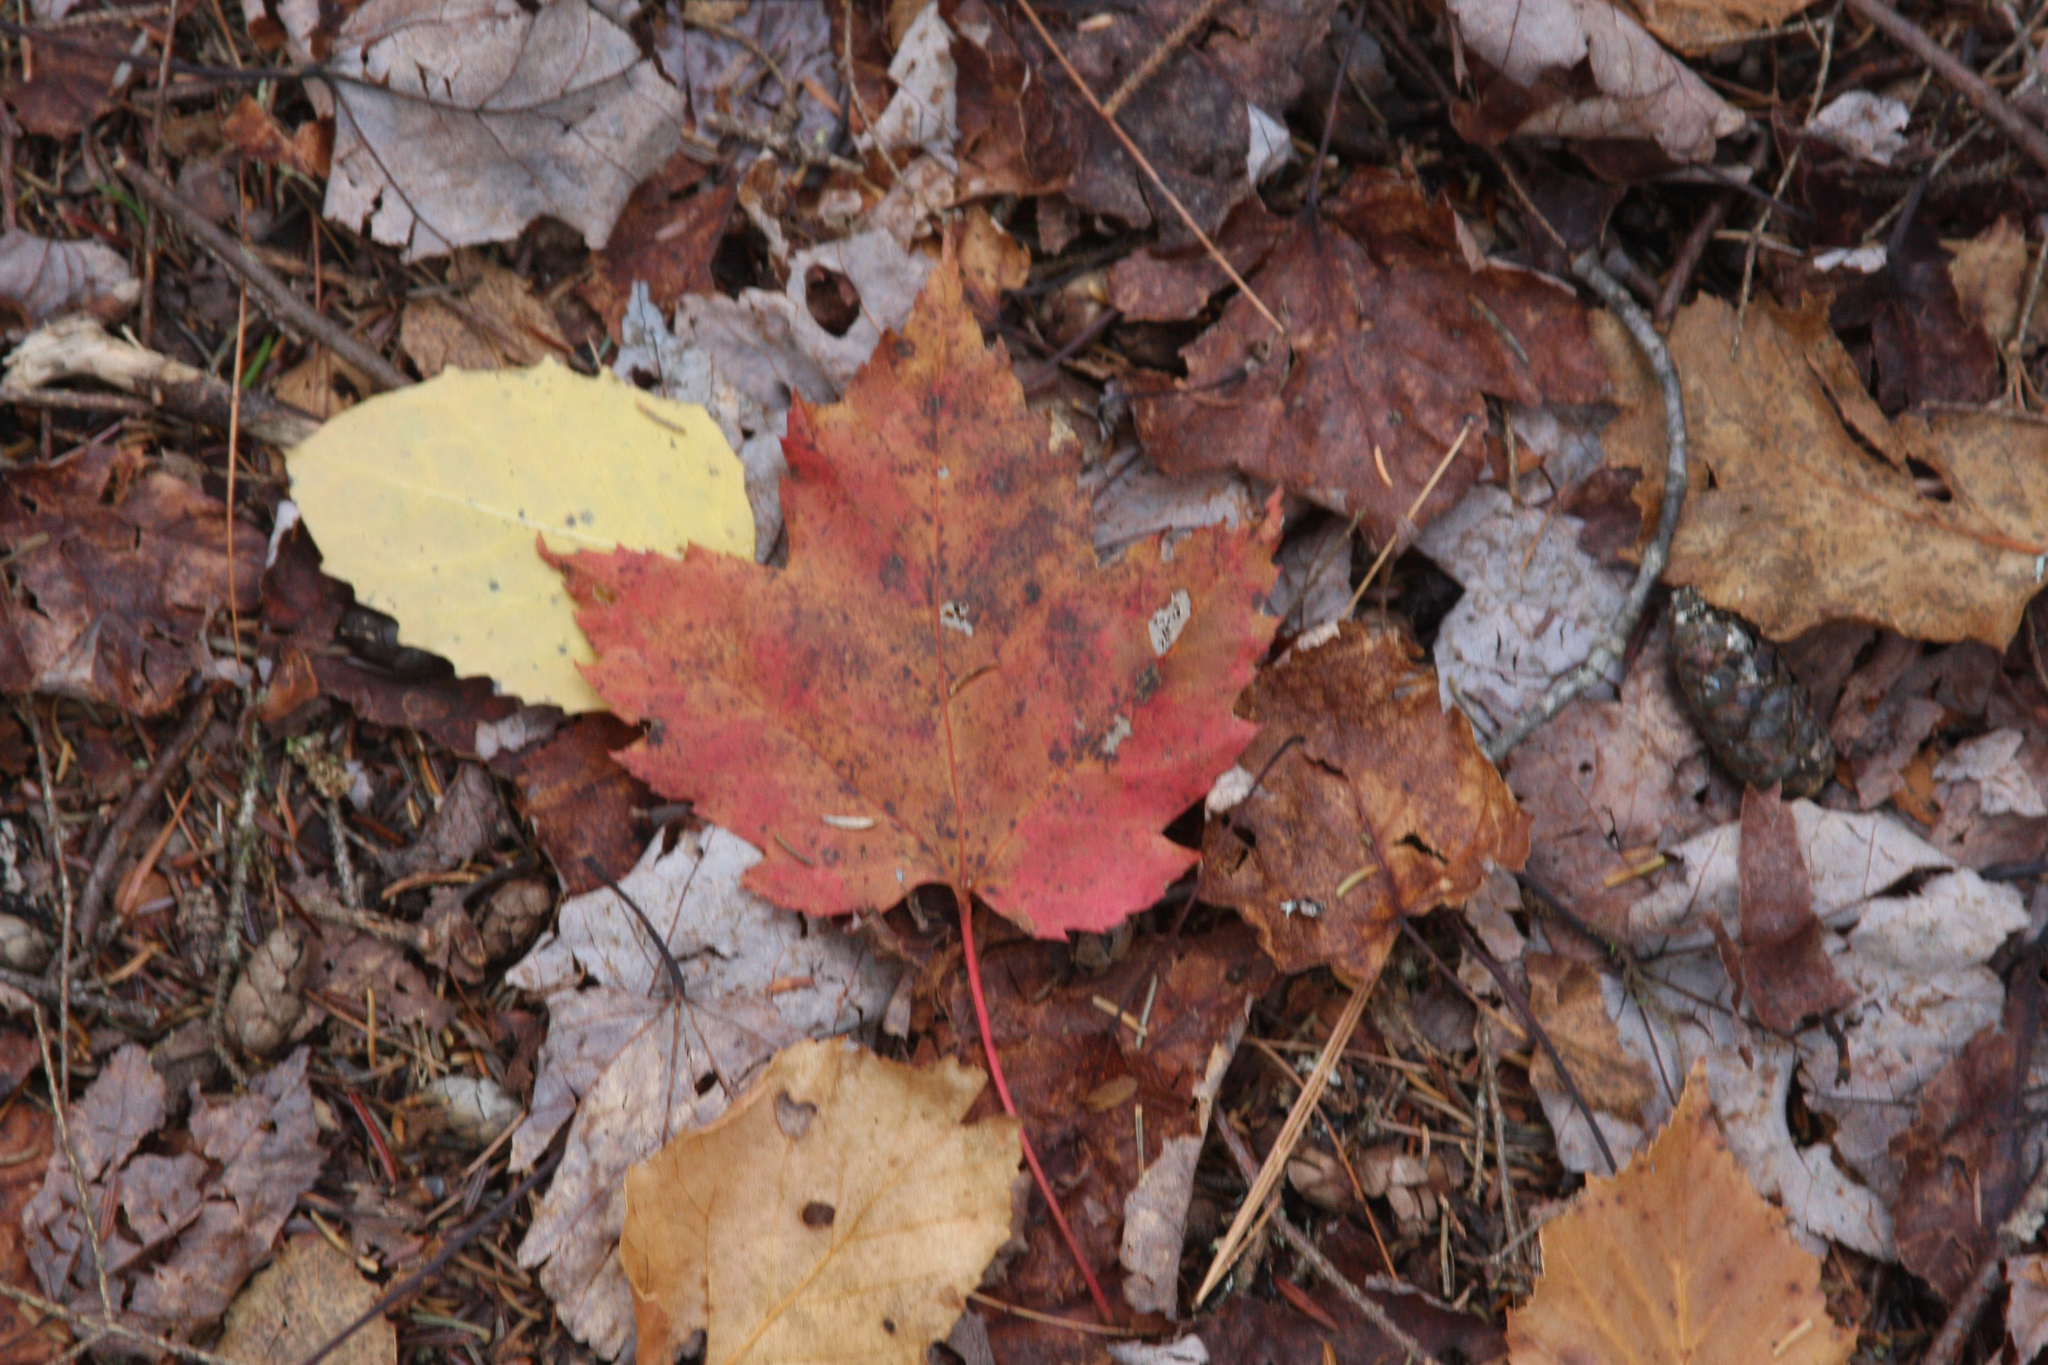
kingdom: Plantae
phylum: Tracheophyta
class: Magnoliopsida
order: Sapindales
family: Sapindaceae
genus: Acer
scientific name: Acer rubrum
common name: Red maple
